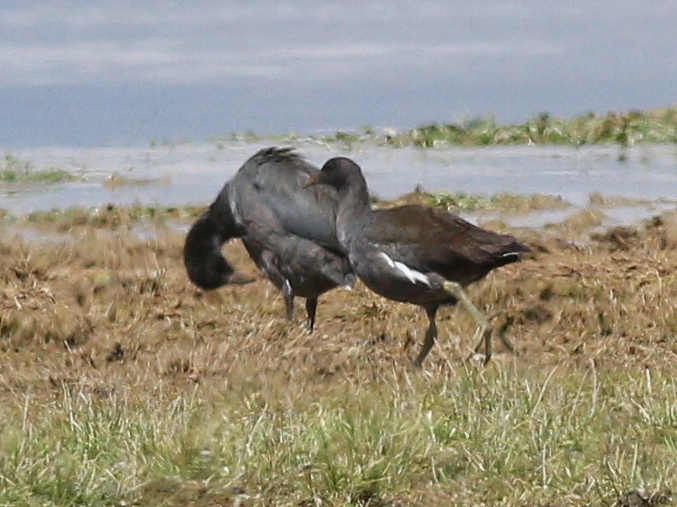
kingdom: Animalia
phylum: Chordata
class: Aves
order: Gruiformes
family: Rallidae
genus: Gallinula
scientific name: Gallinula chloropus
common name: Common moorhen
